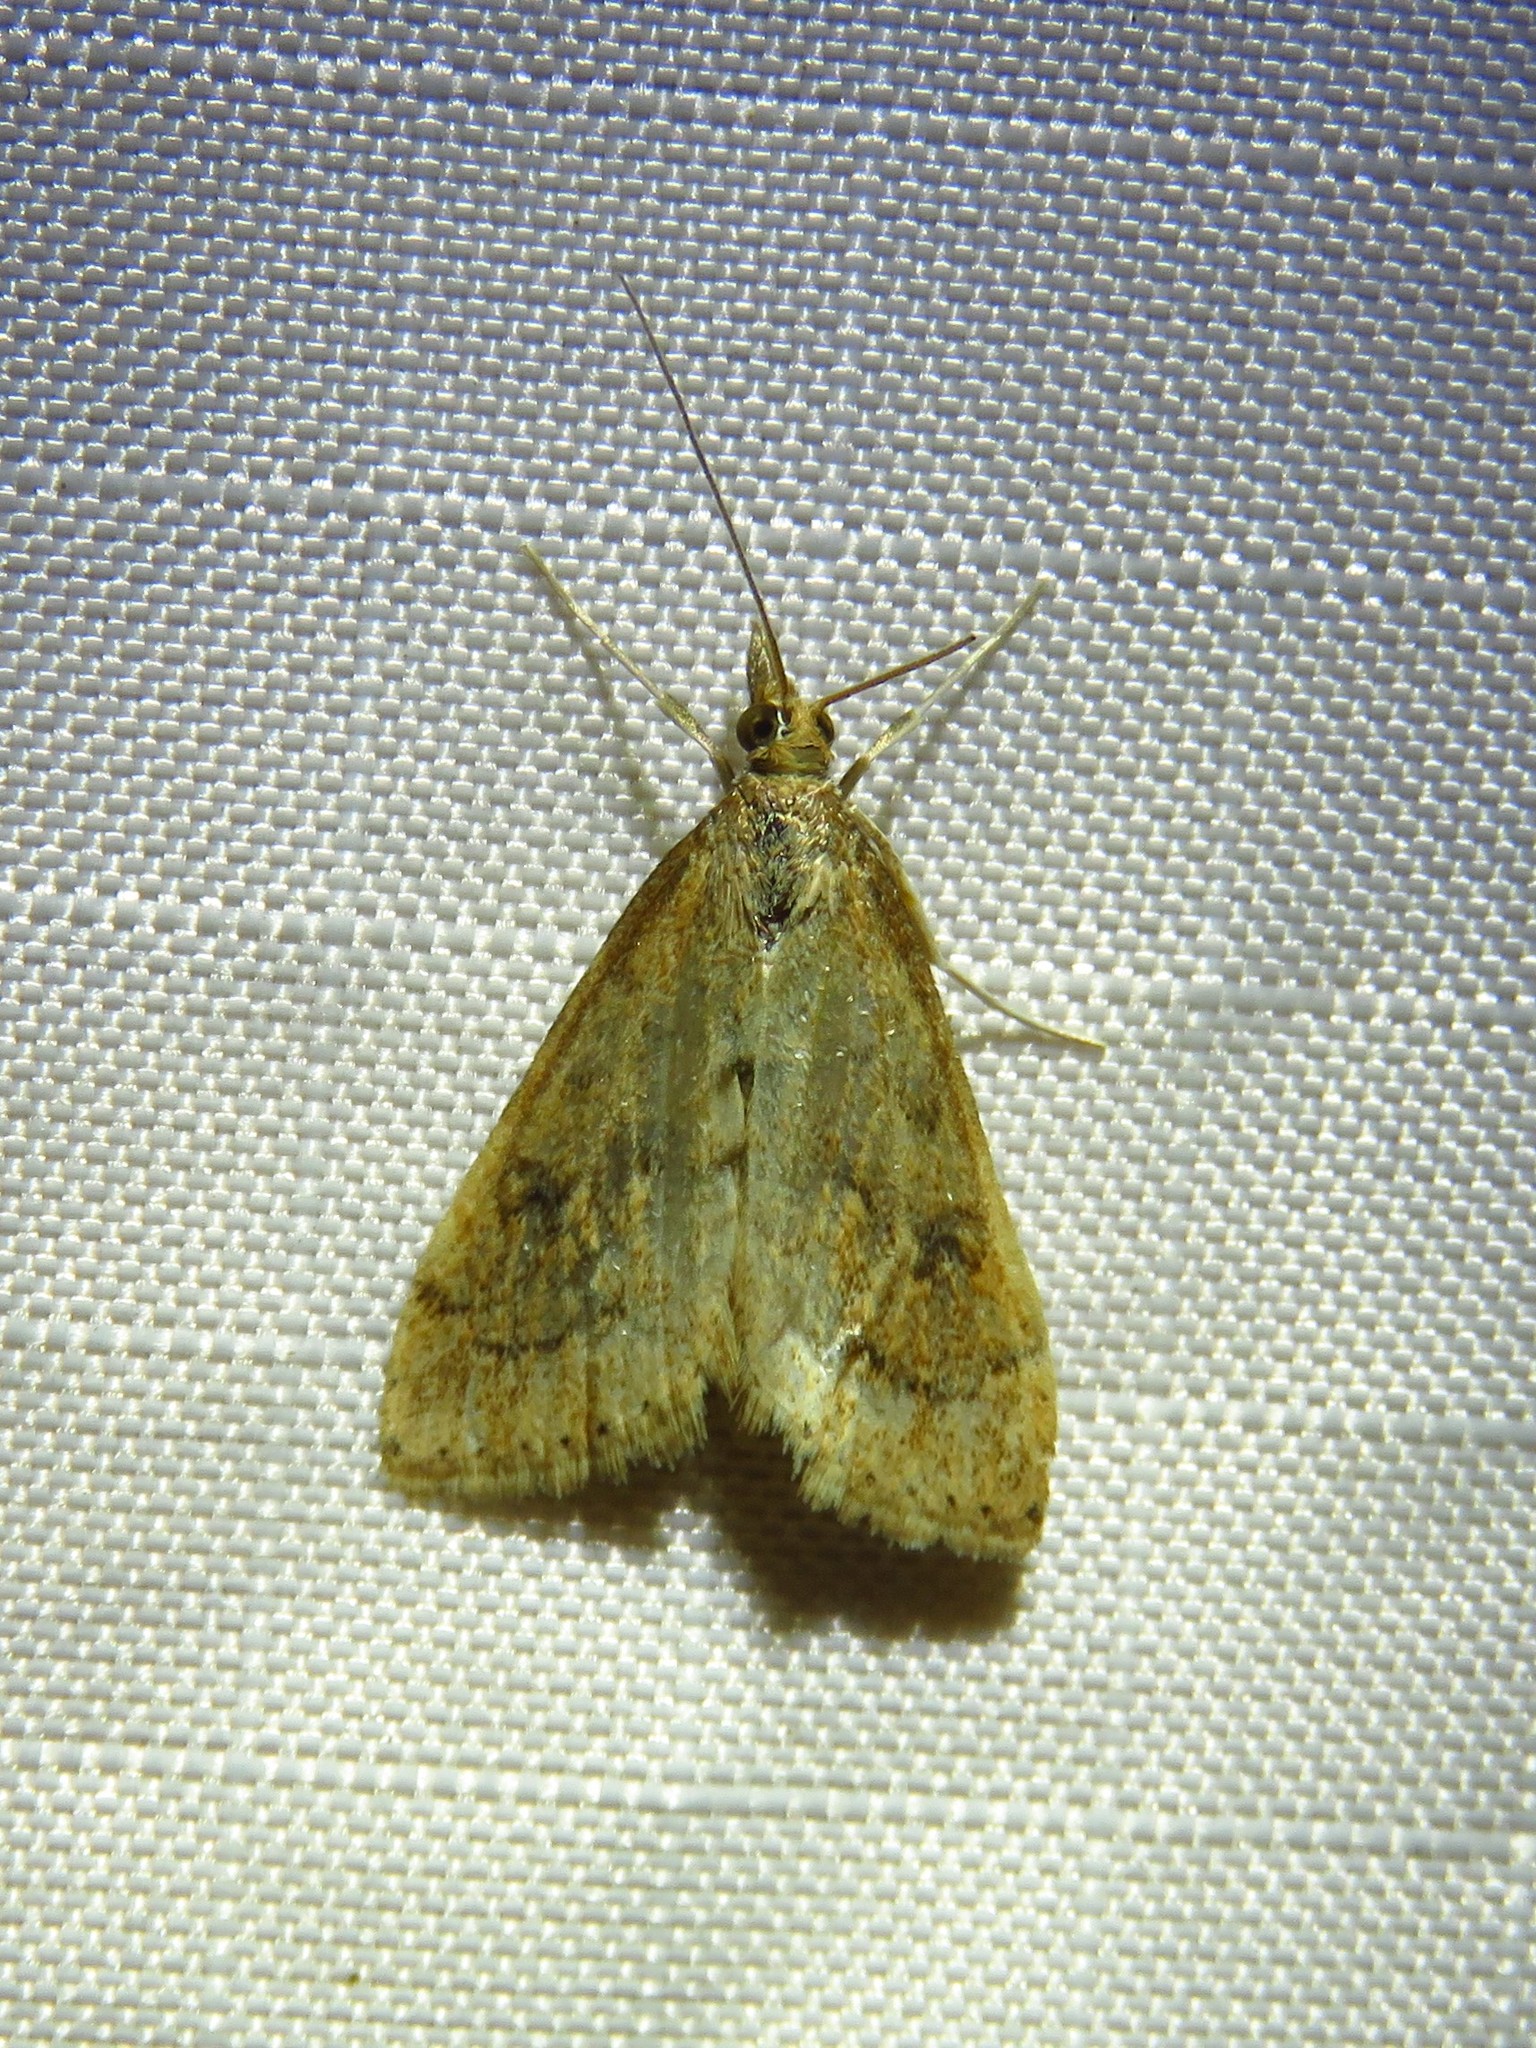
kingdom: Animalia
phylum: Arthropoda
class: Insecta
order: Lepidoptera
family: Crambidae
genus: Udea
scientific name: Udea rubigalis
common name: Celery leaftier moth
